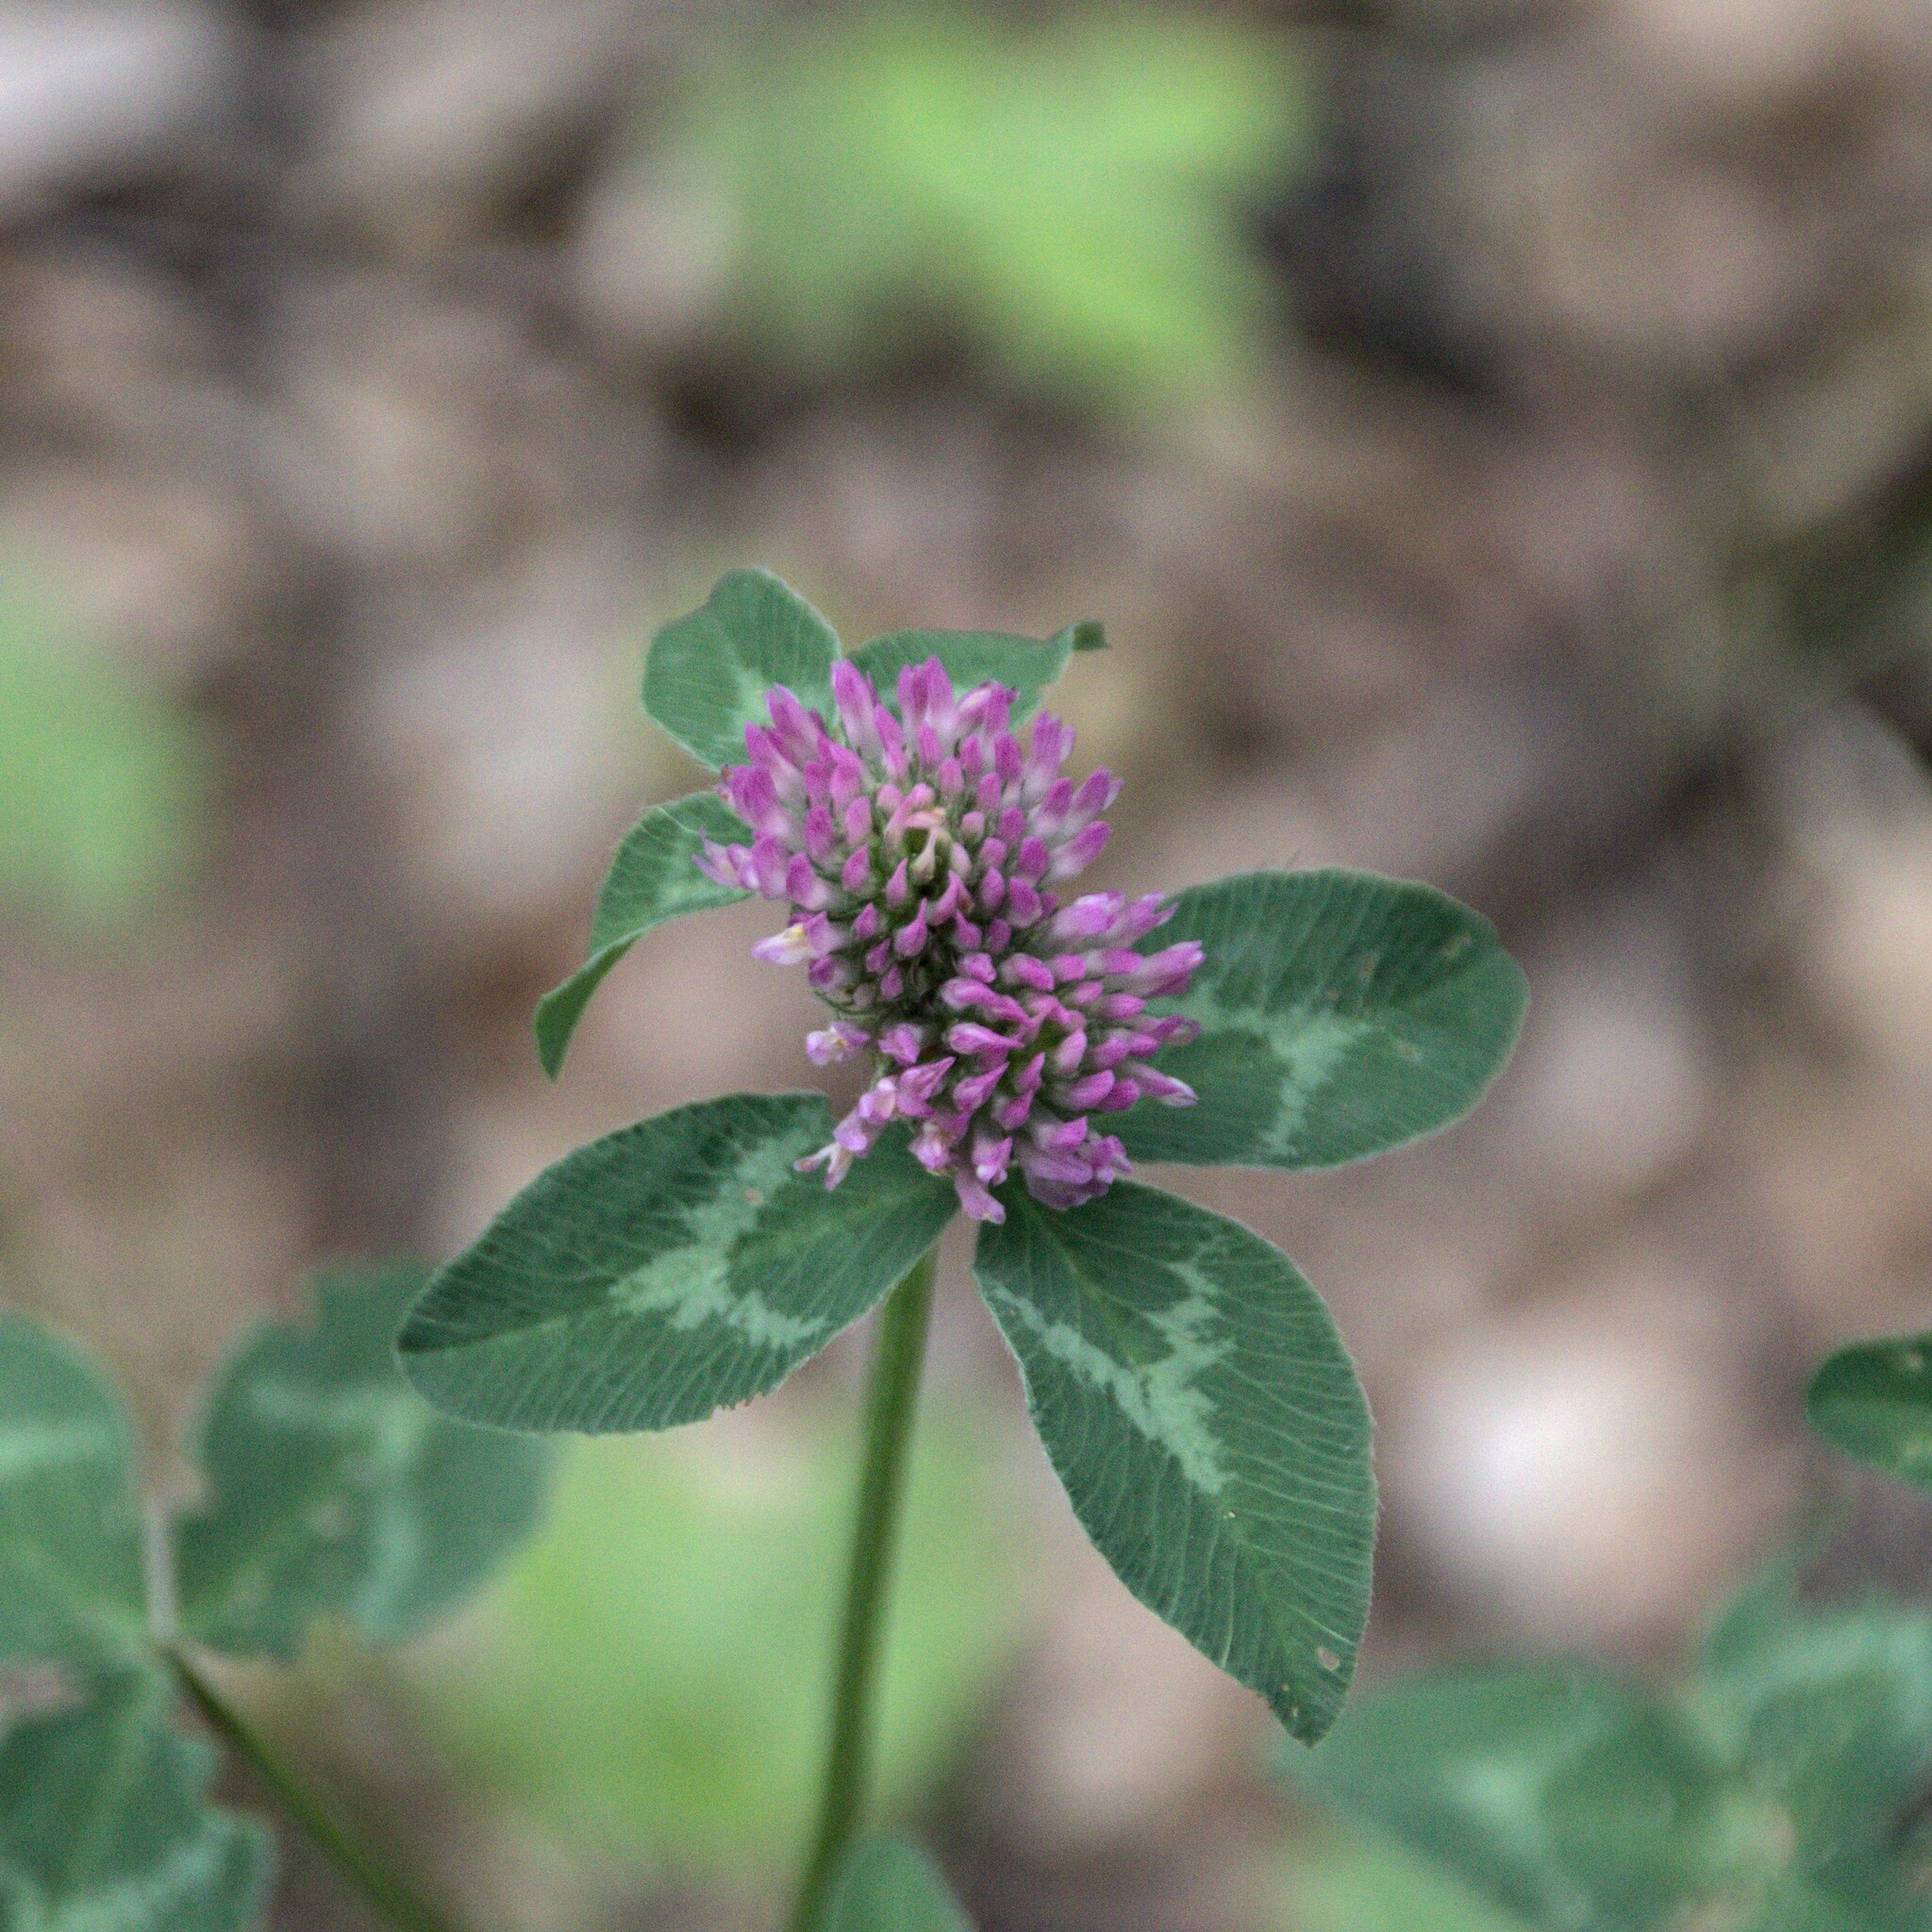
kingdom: Plantae
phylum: Tracheophyta
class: Magnoliopsida
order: Fabales
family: Fabaceae
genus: Trifolium
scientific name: Trifolium pratense
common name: Red clover
